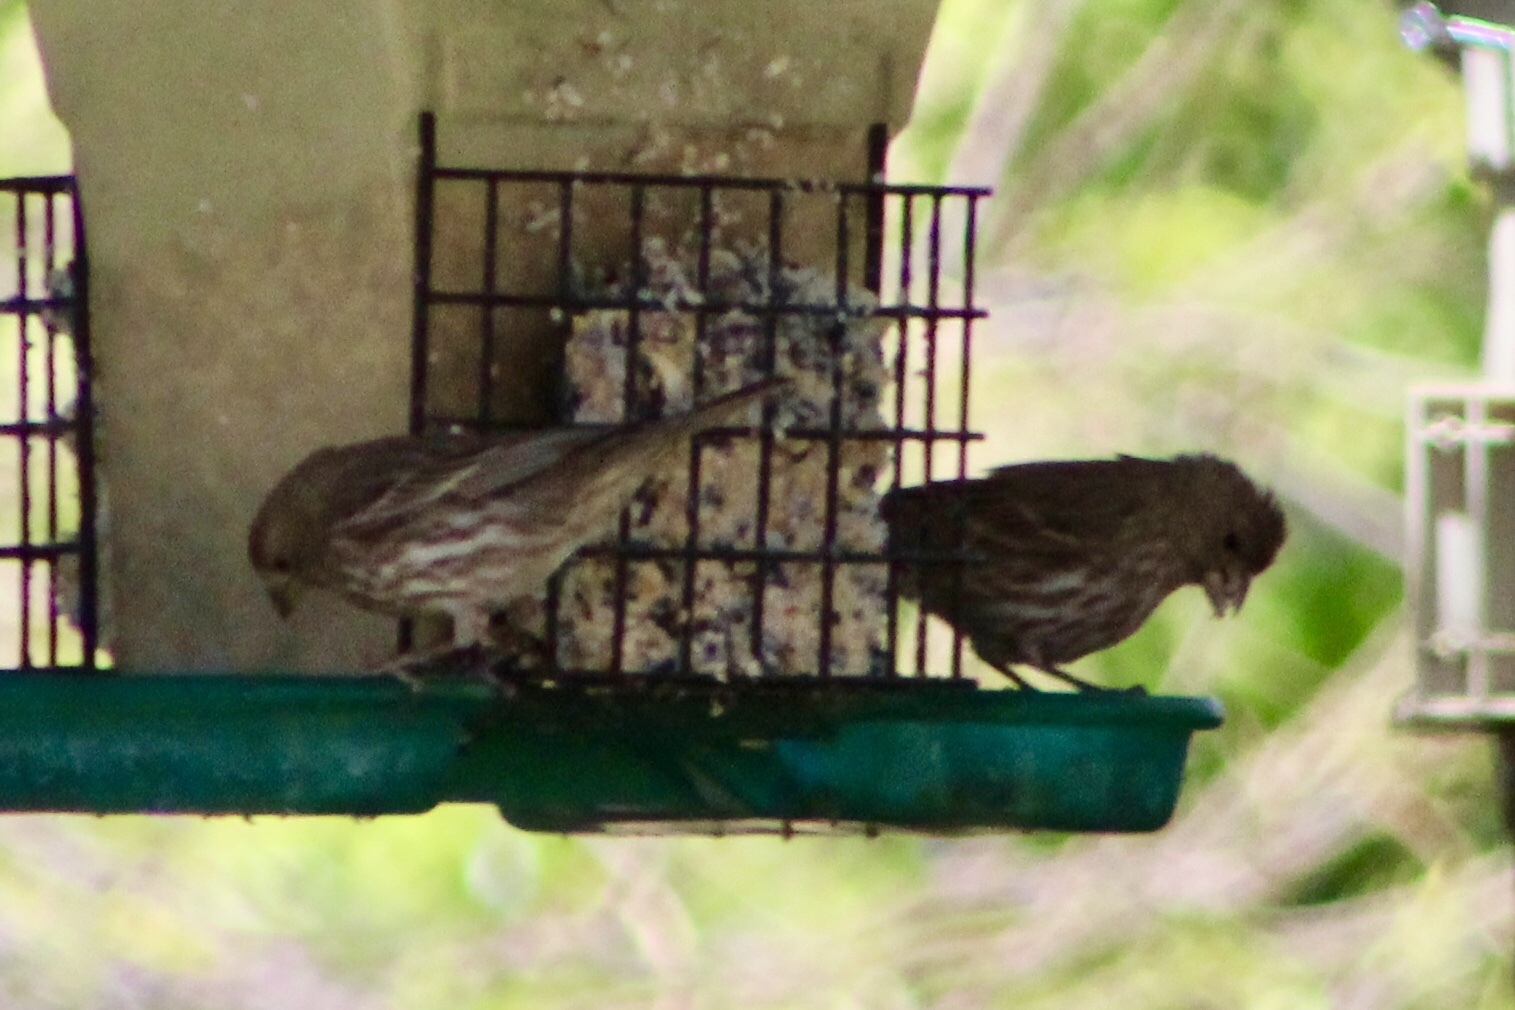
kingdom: Animalia
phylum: Chordata
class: Aves
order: Passeriformes
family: Fringillidae
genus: Haemorhous
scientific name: Haemorhous mexicanus
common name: House finch
